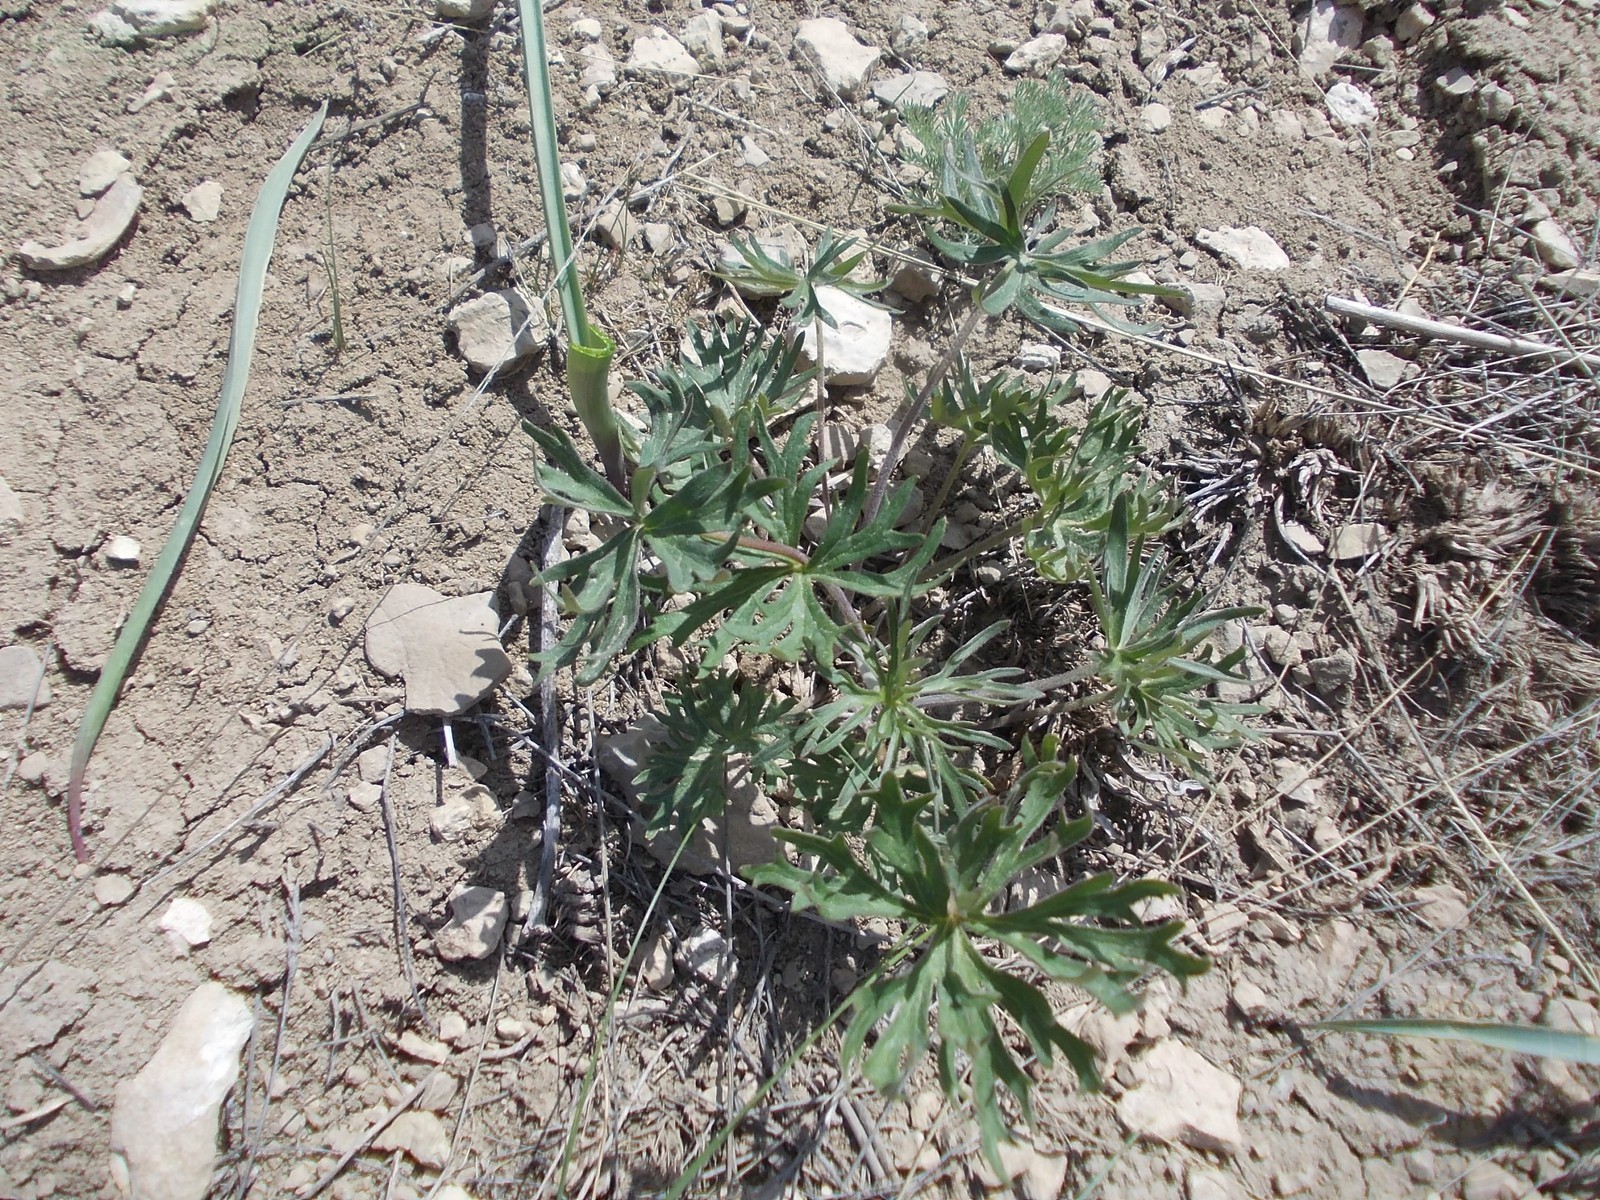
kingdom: Plantae
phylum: Tracheophyta
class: Magnoliopsida
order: Ranunculales
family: Ranunculaceae
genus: Delphinium
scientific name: Delphinium puniceum
